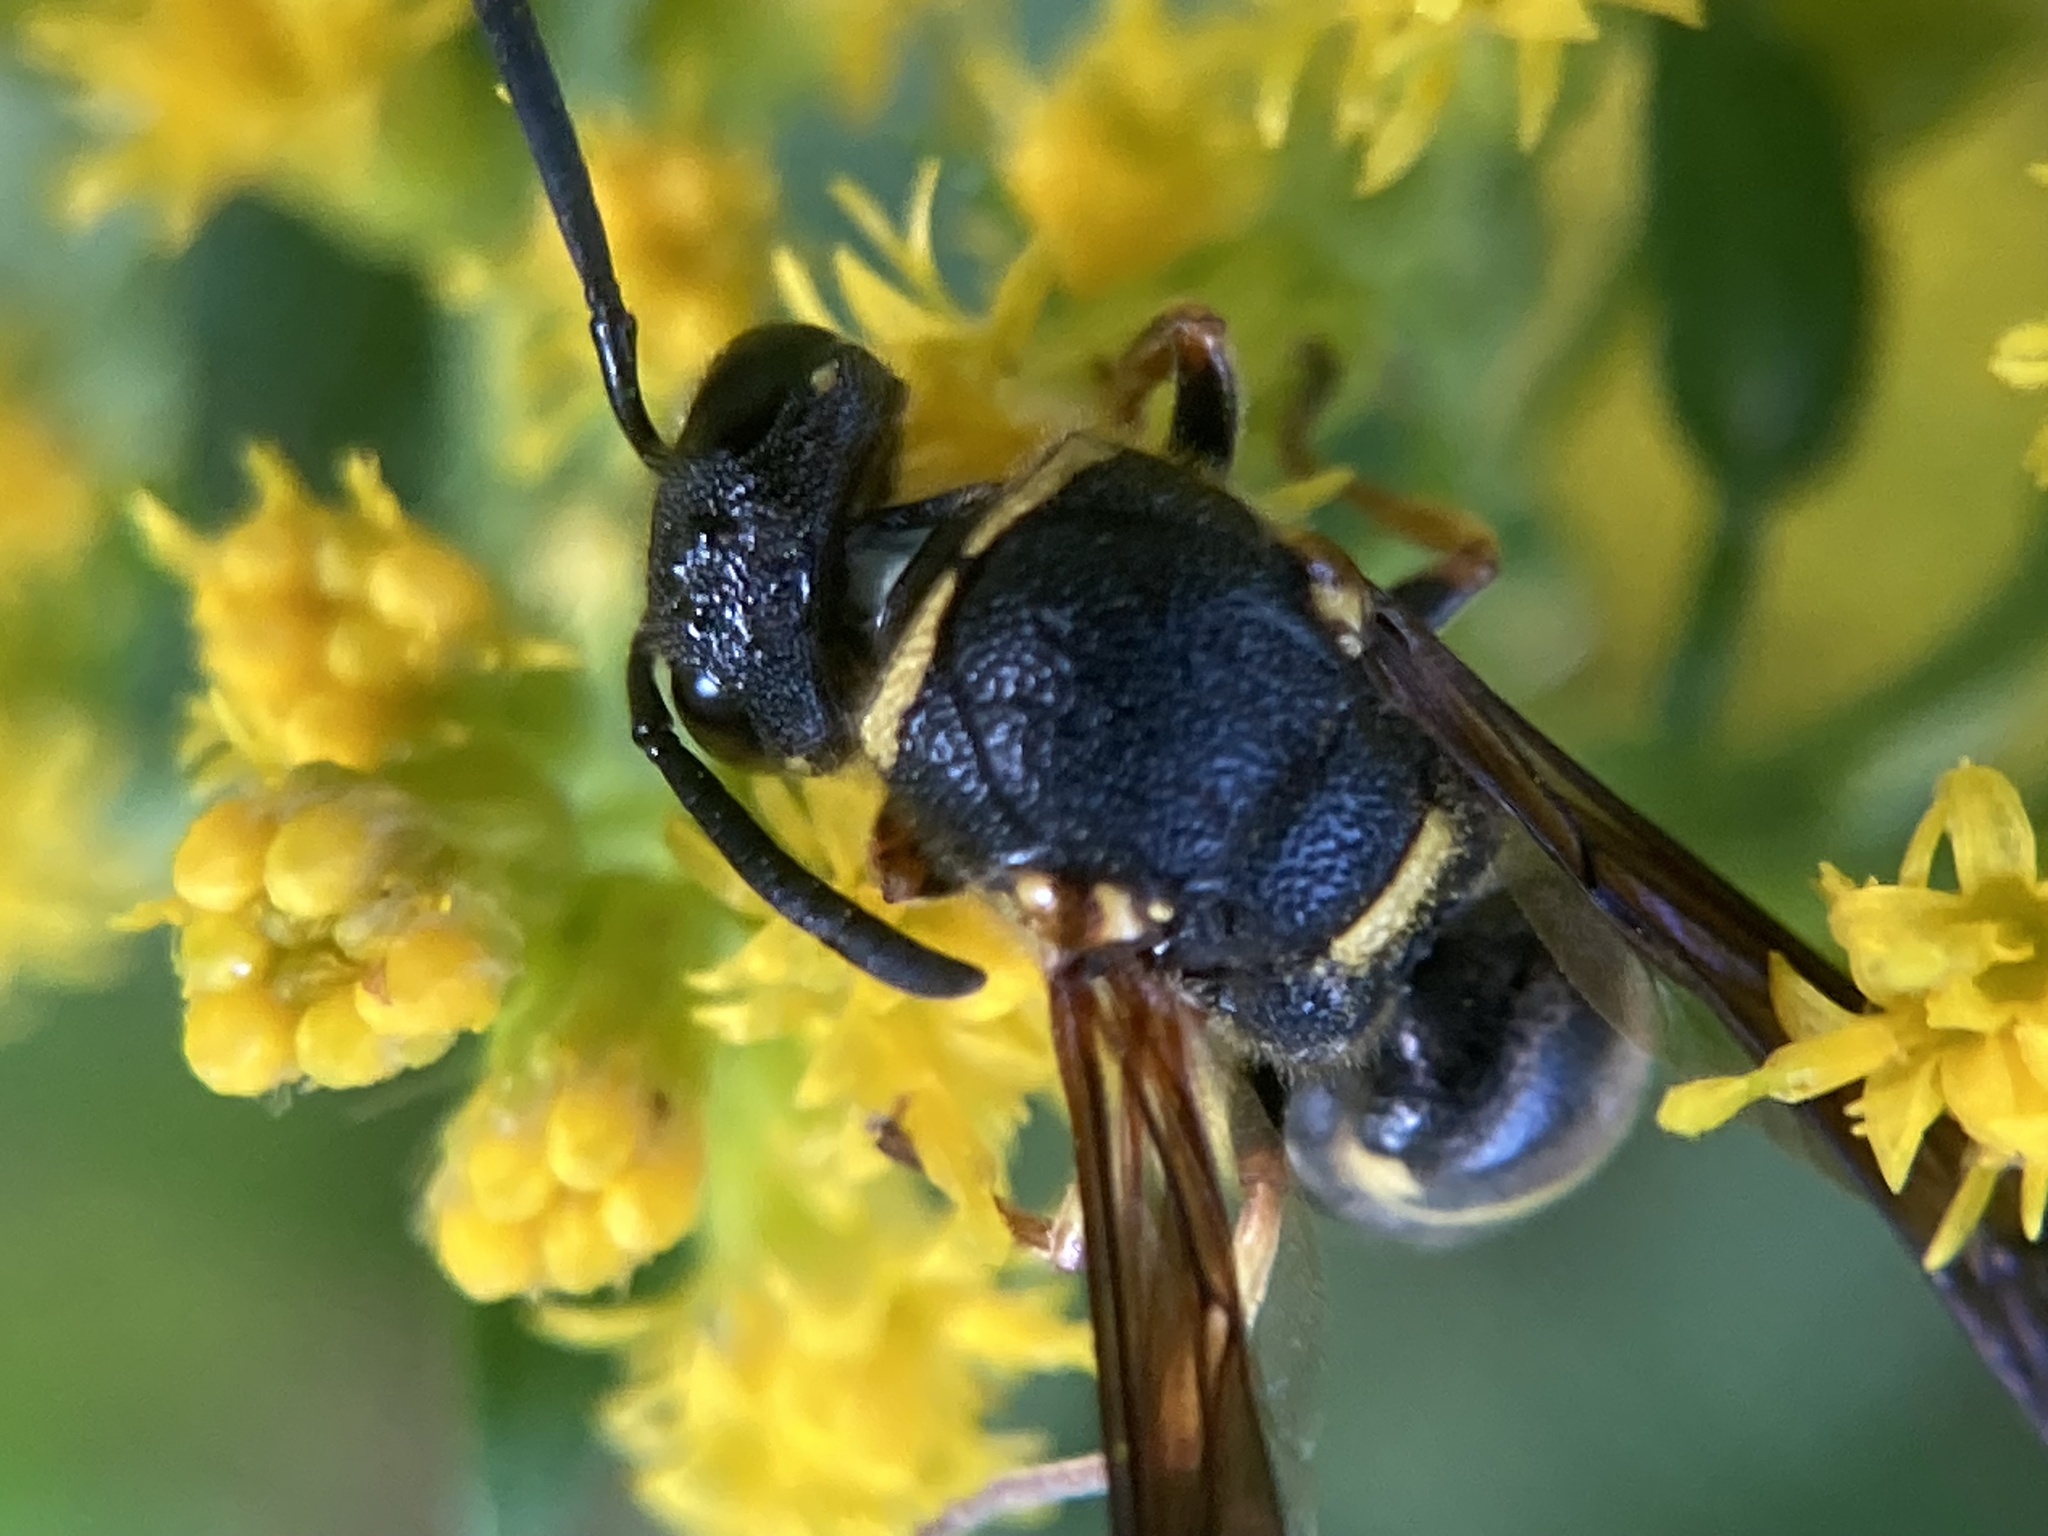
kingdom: Animalia
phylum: Arthropoda
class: Insecta
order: Hymenoptera
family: Eumenidae
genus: Euodynerus
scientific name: Euodynerus foraminatus
